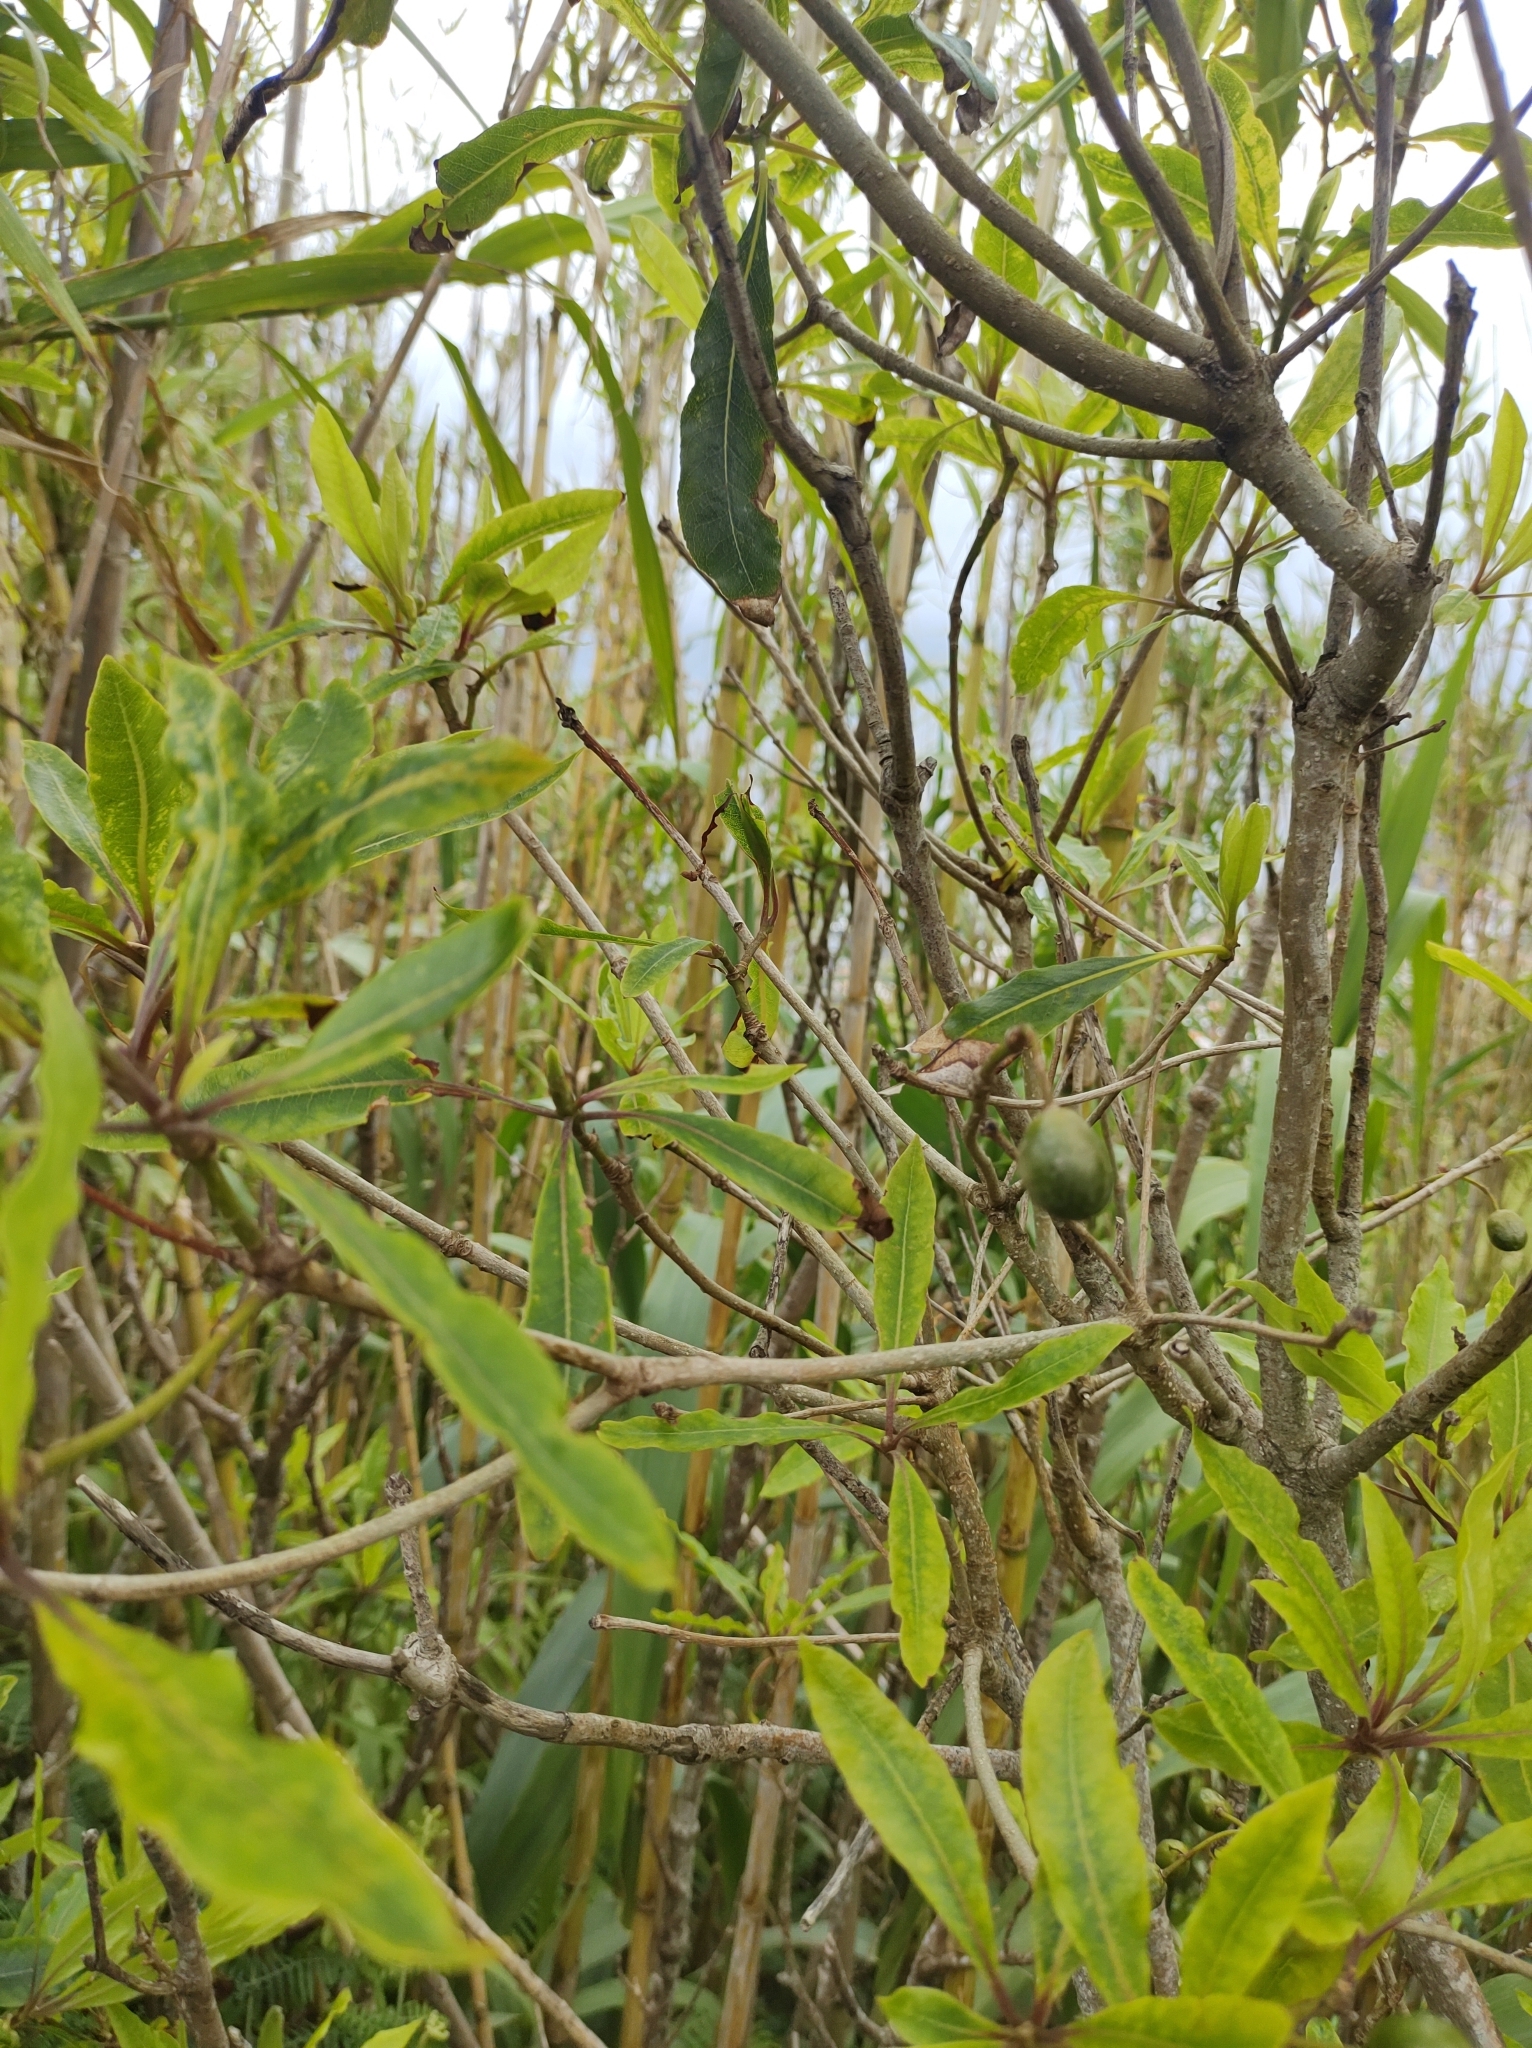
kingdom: Plantae
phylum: Tracheophyta
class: Magnoliopsida
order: Apiales
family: Pittosporaceae
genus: Pittosporum
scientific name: Pittosporum undulatum
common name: Australian cheesewood
